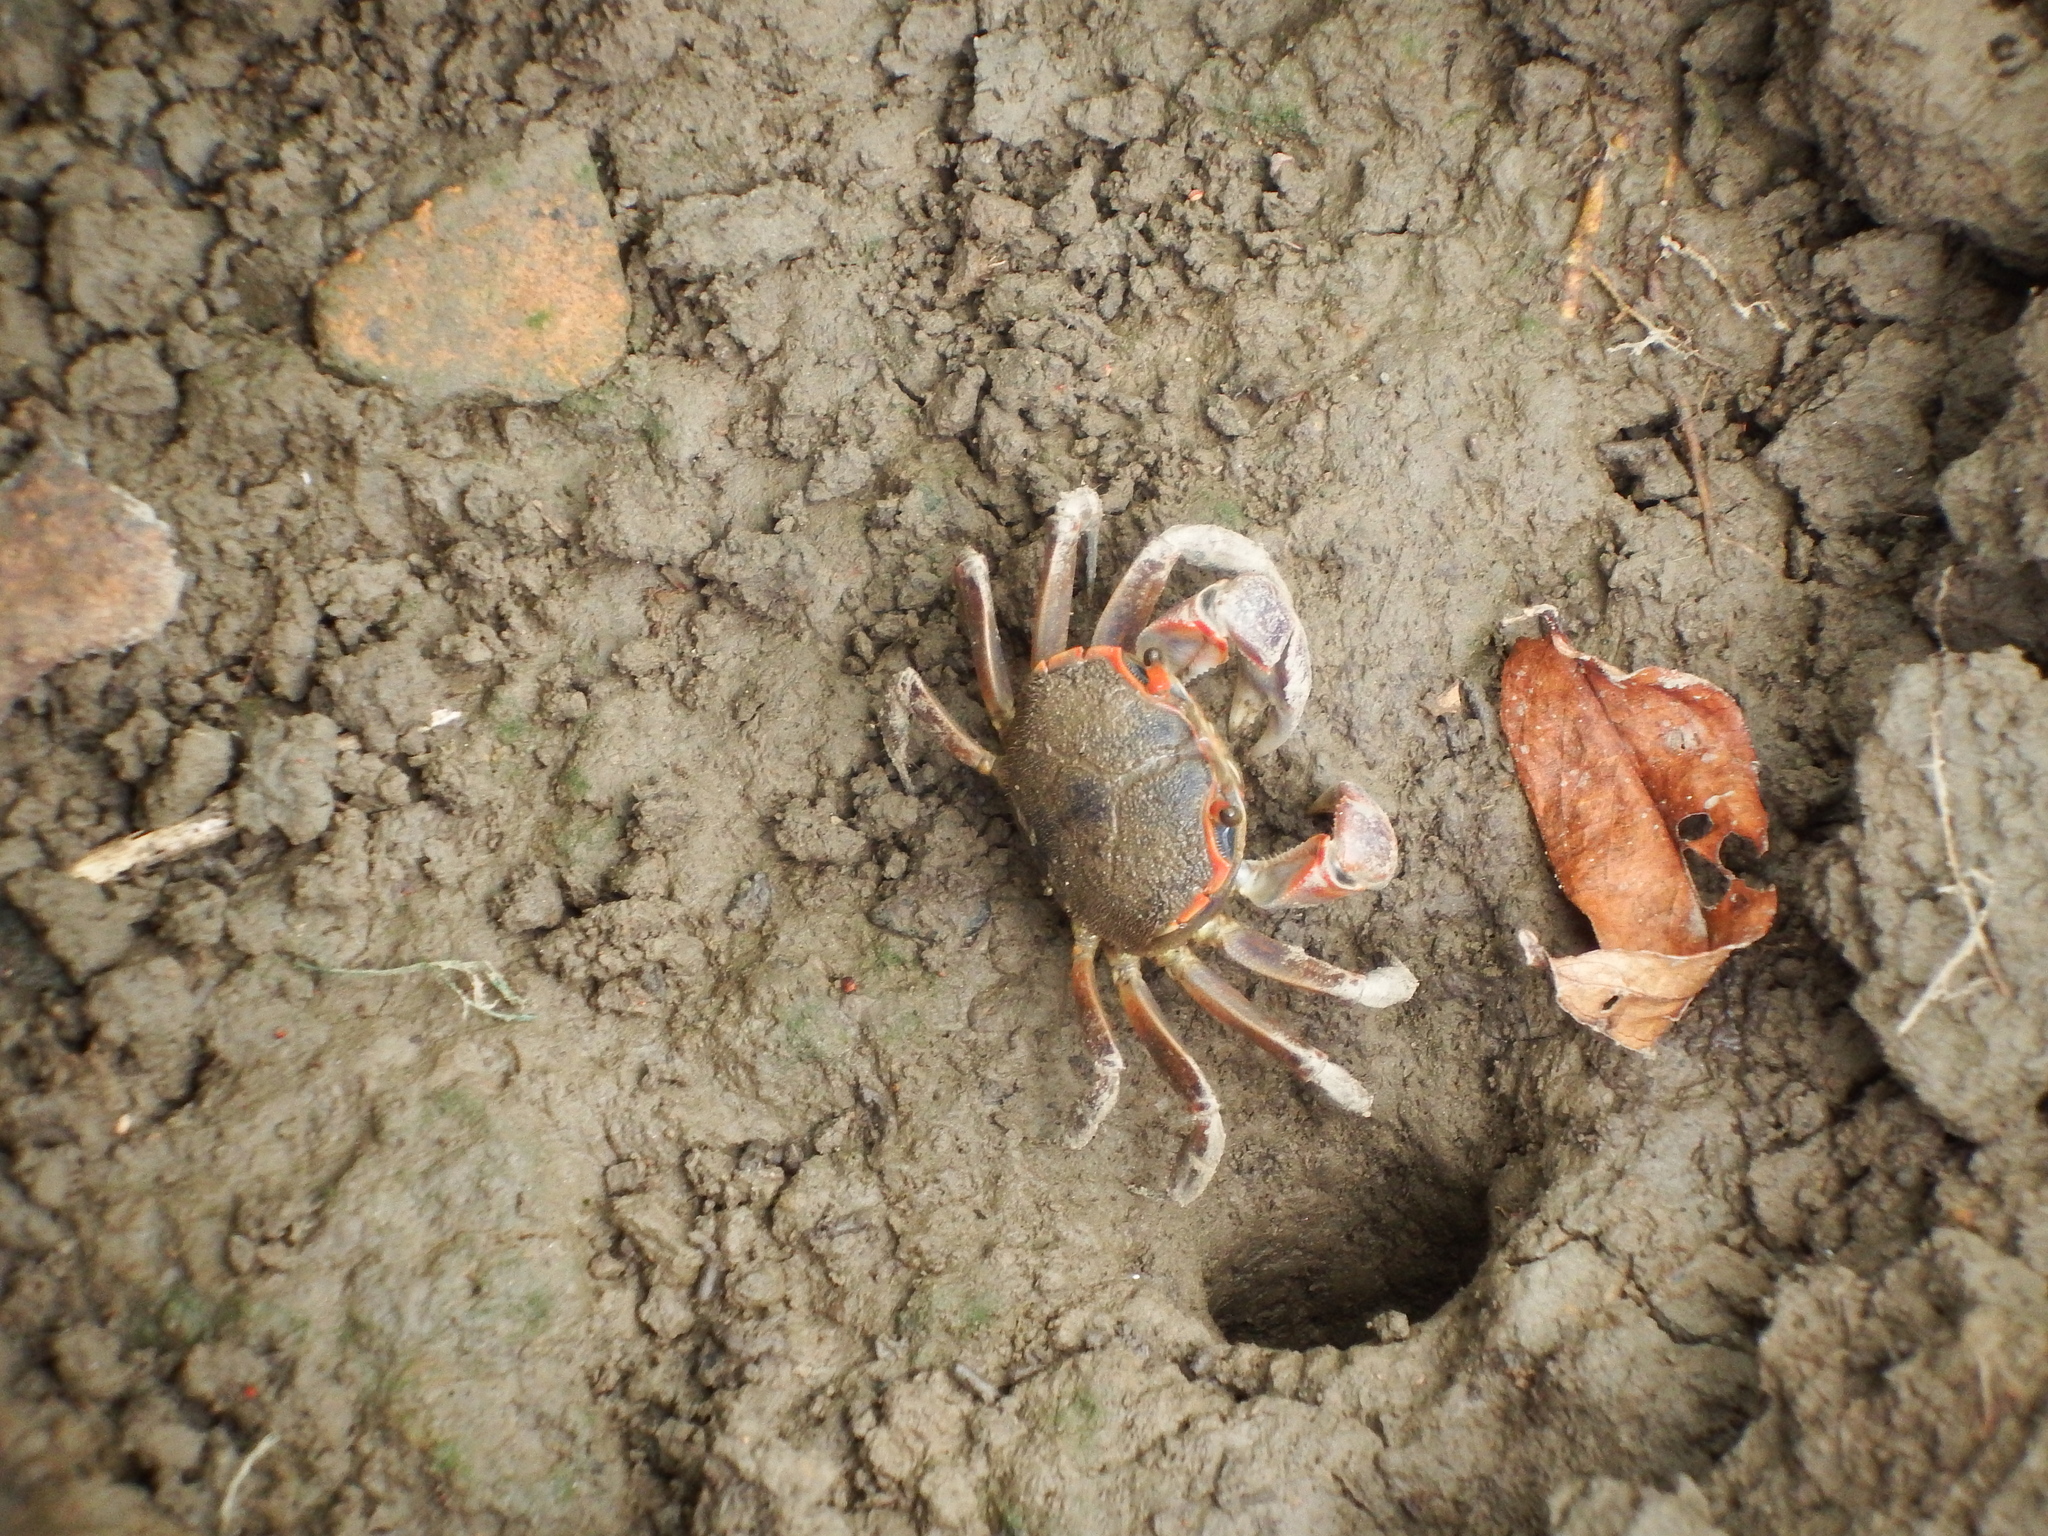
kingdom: Animalia
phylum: Arthropoda
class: Malacostraca
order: Decapoda
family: Varunidae
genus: Chasmagnathus
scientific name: Chasmagnathus convexus
